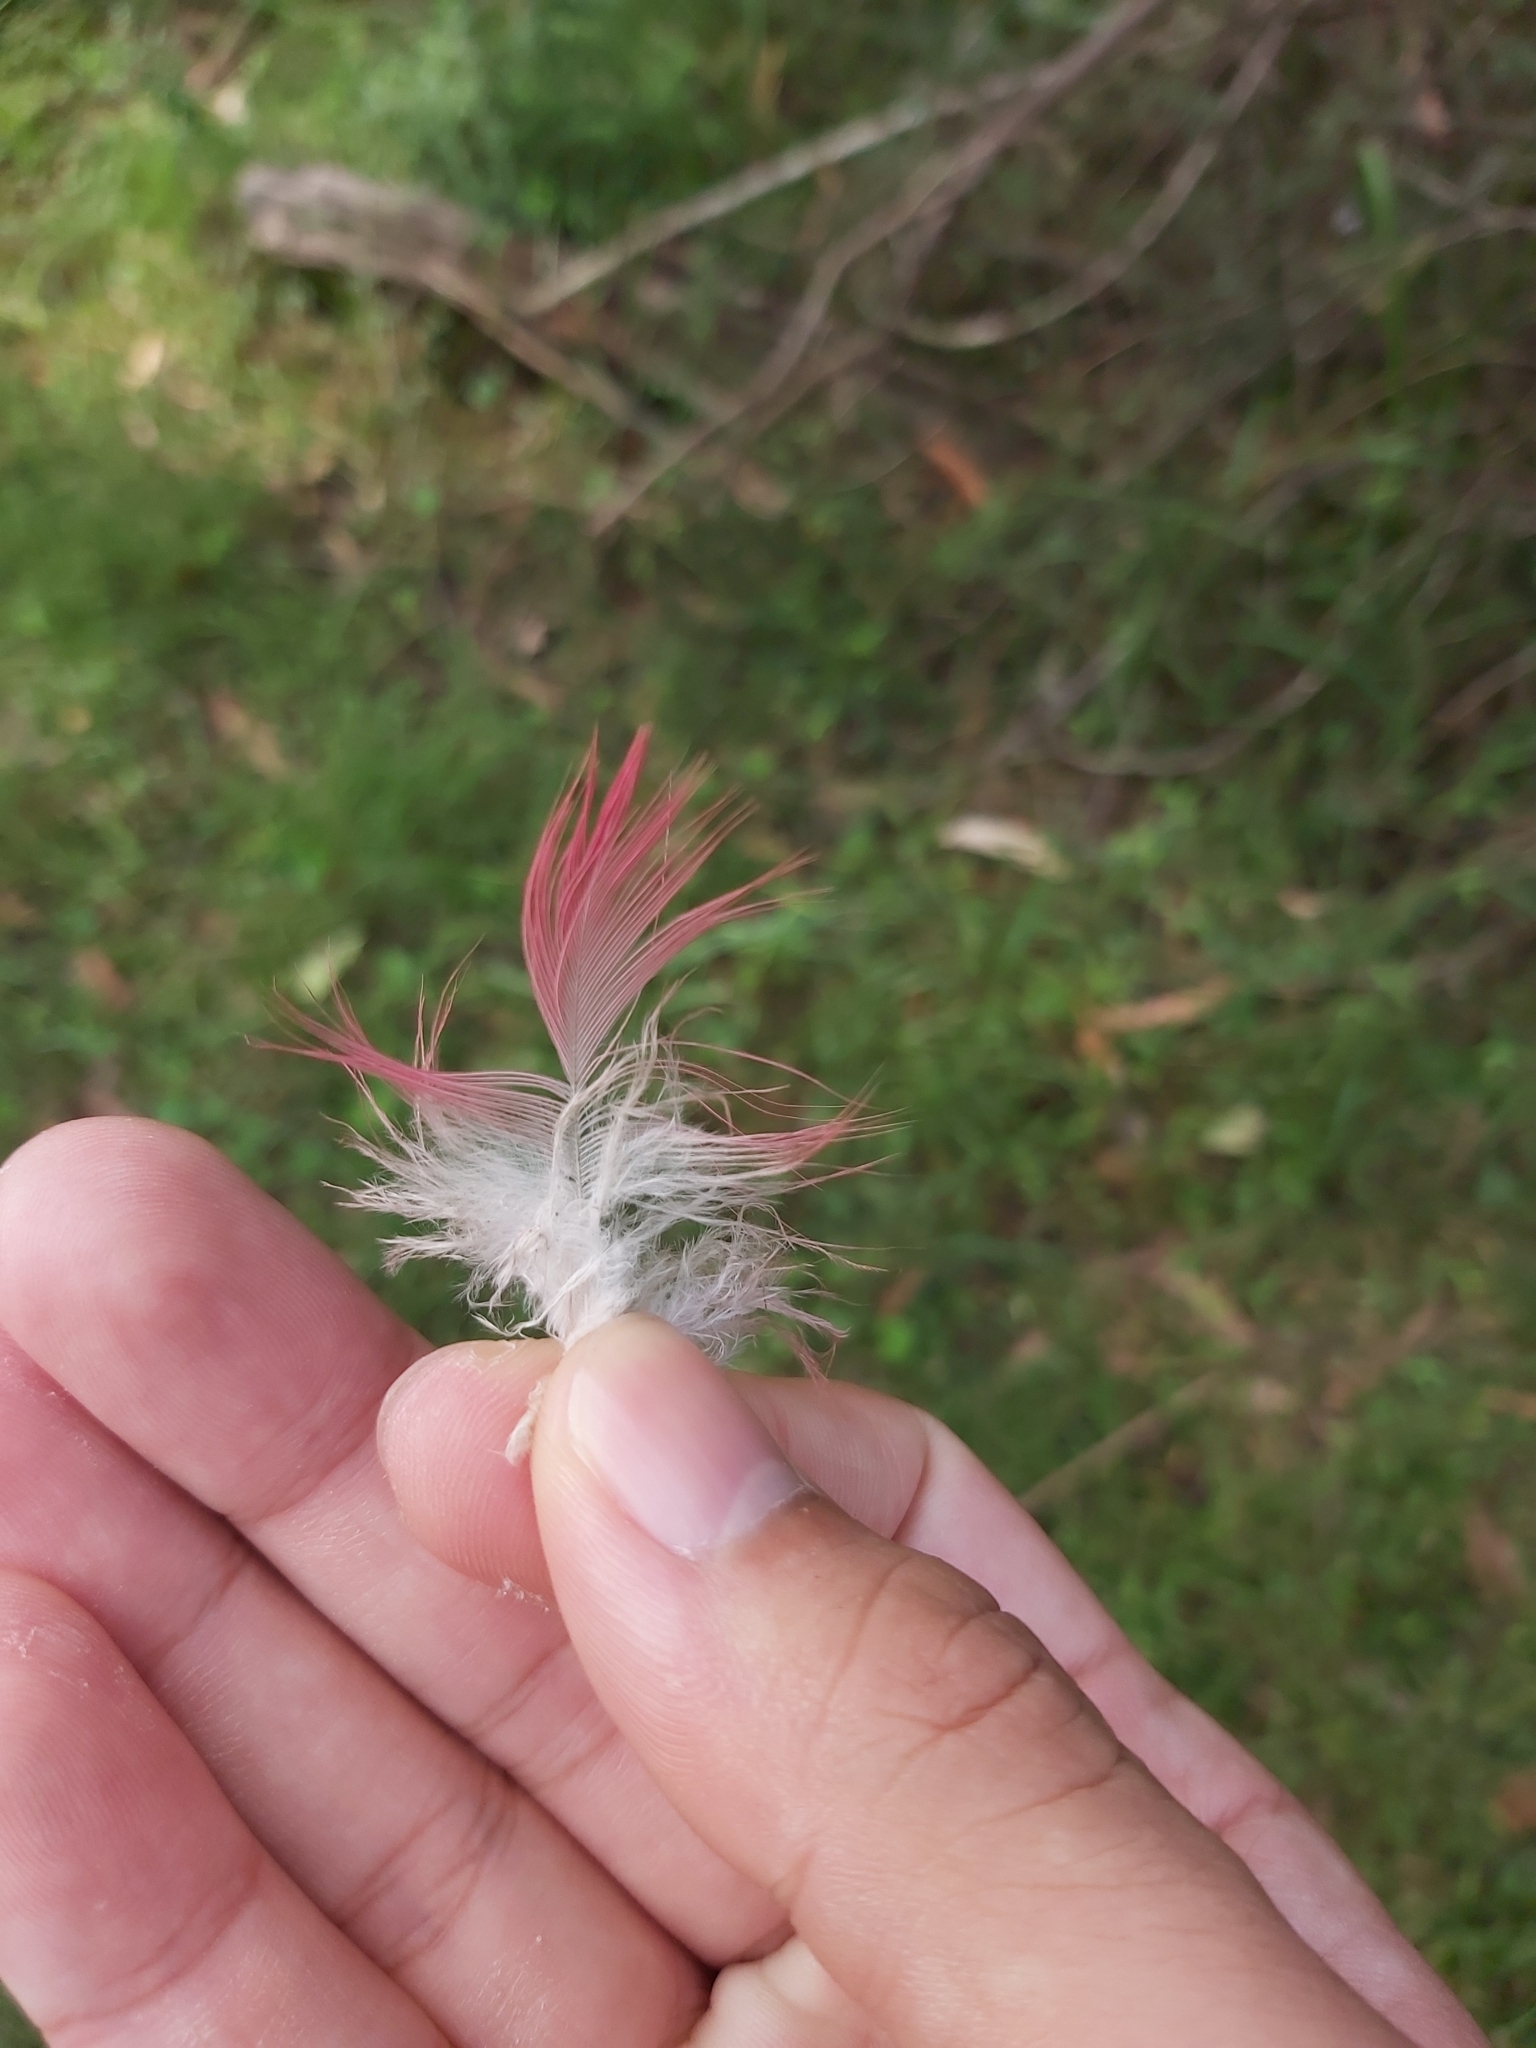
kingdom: Animalia
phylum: Chordata
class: Aves
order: Psittaciformes
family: Psittacidae
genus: Eolophus
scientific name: Eolophus roseicapilla
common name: Galah
